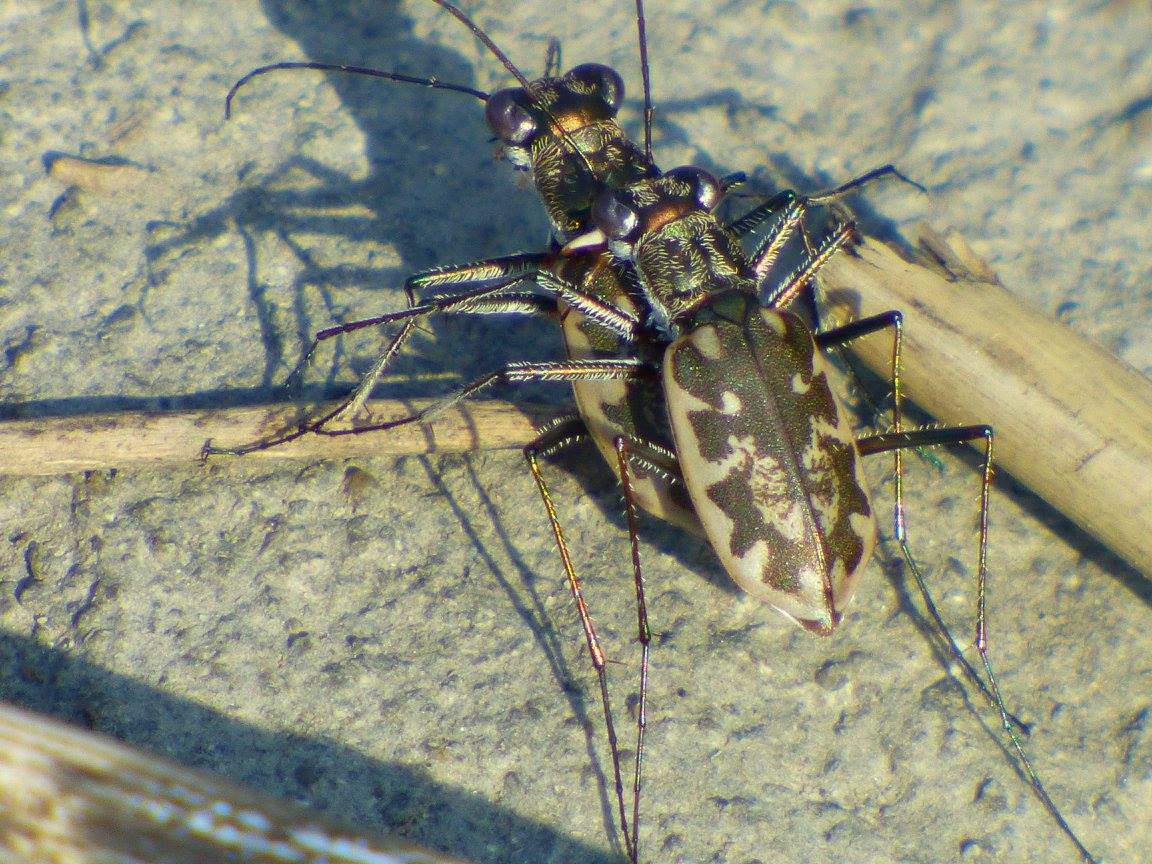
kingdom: Animalia
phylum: Arthropoda
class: Insecta
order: Coleoptera
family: Carabidae
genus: Ellipsoptera
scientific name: Ellipsoptera marginata
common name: Margined tiger beetle
